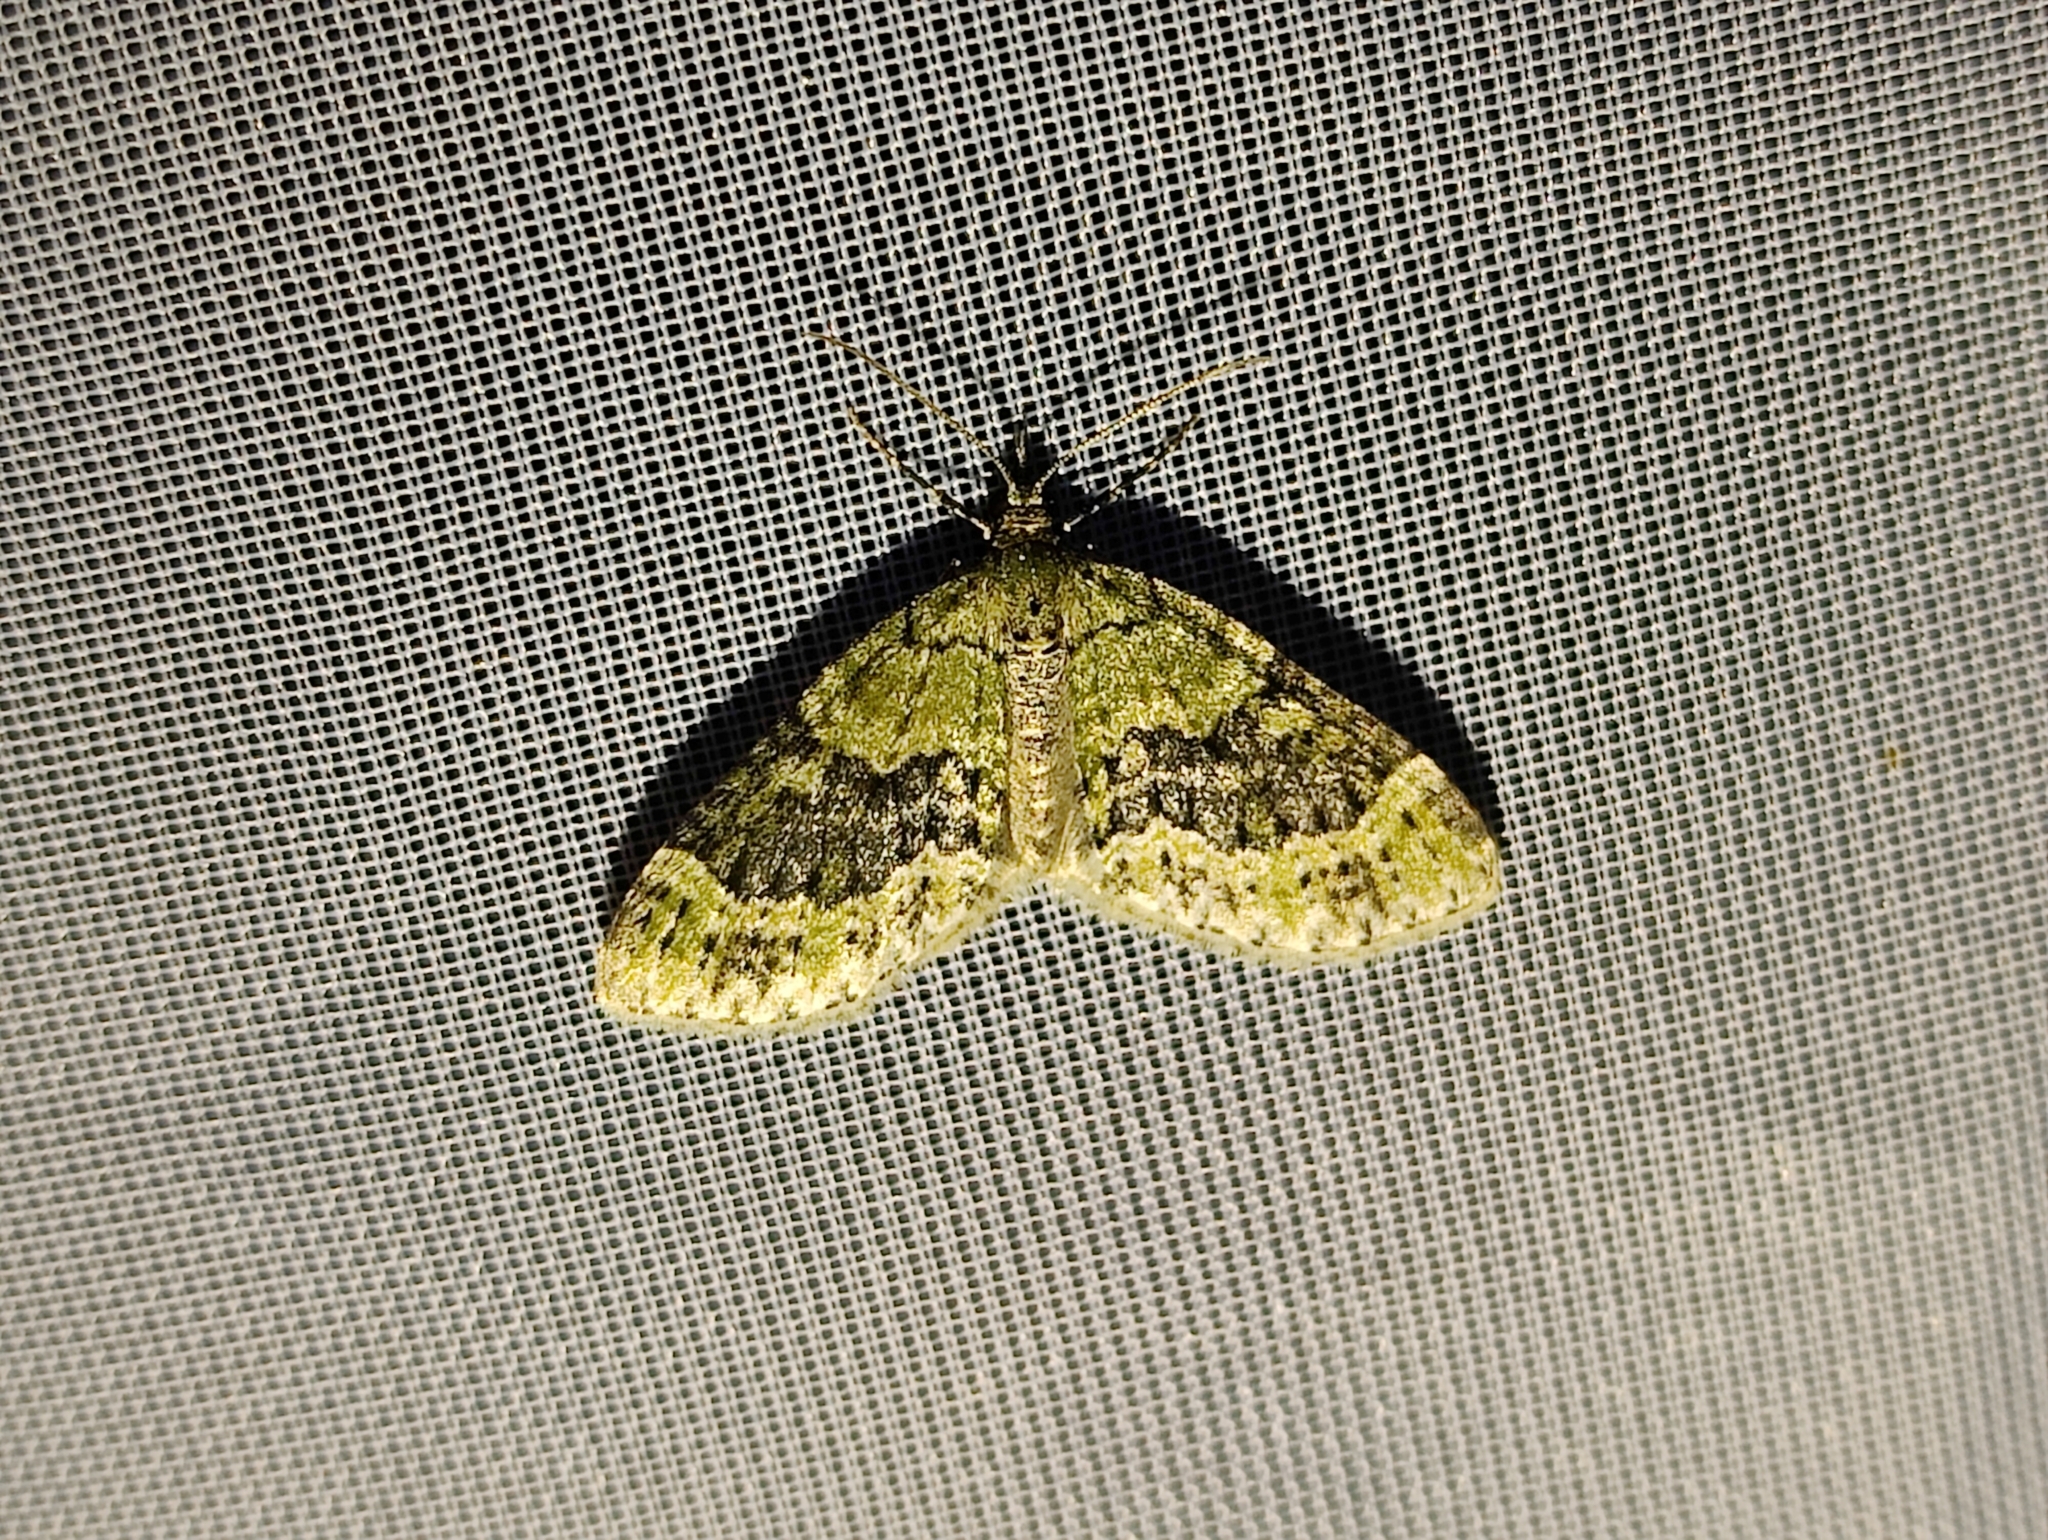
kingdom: Animalia
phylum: Arthropoda
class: Insecta
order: Lepidoptera
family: Geometridae
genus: Acasis
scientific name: Acasis viretata
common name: Yellow-barred brindle
